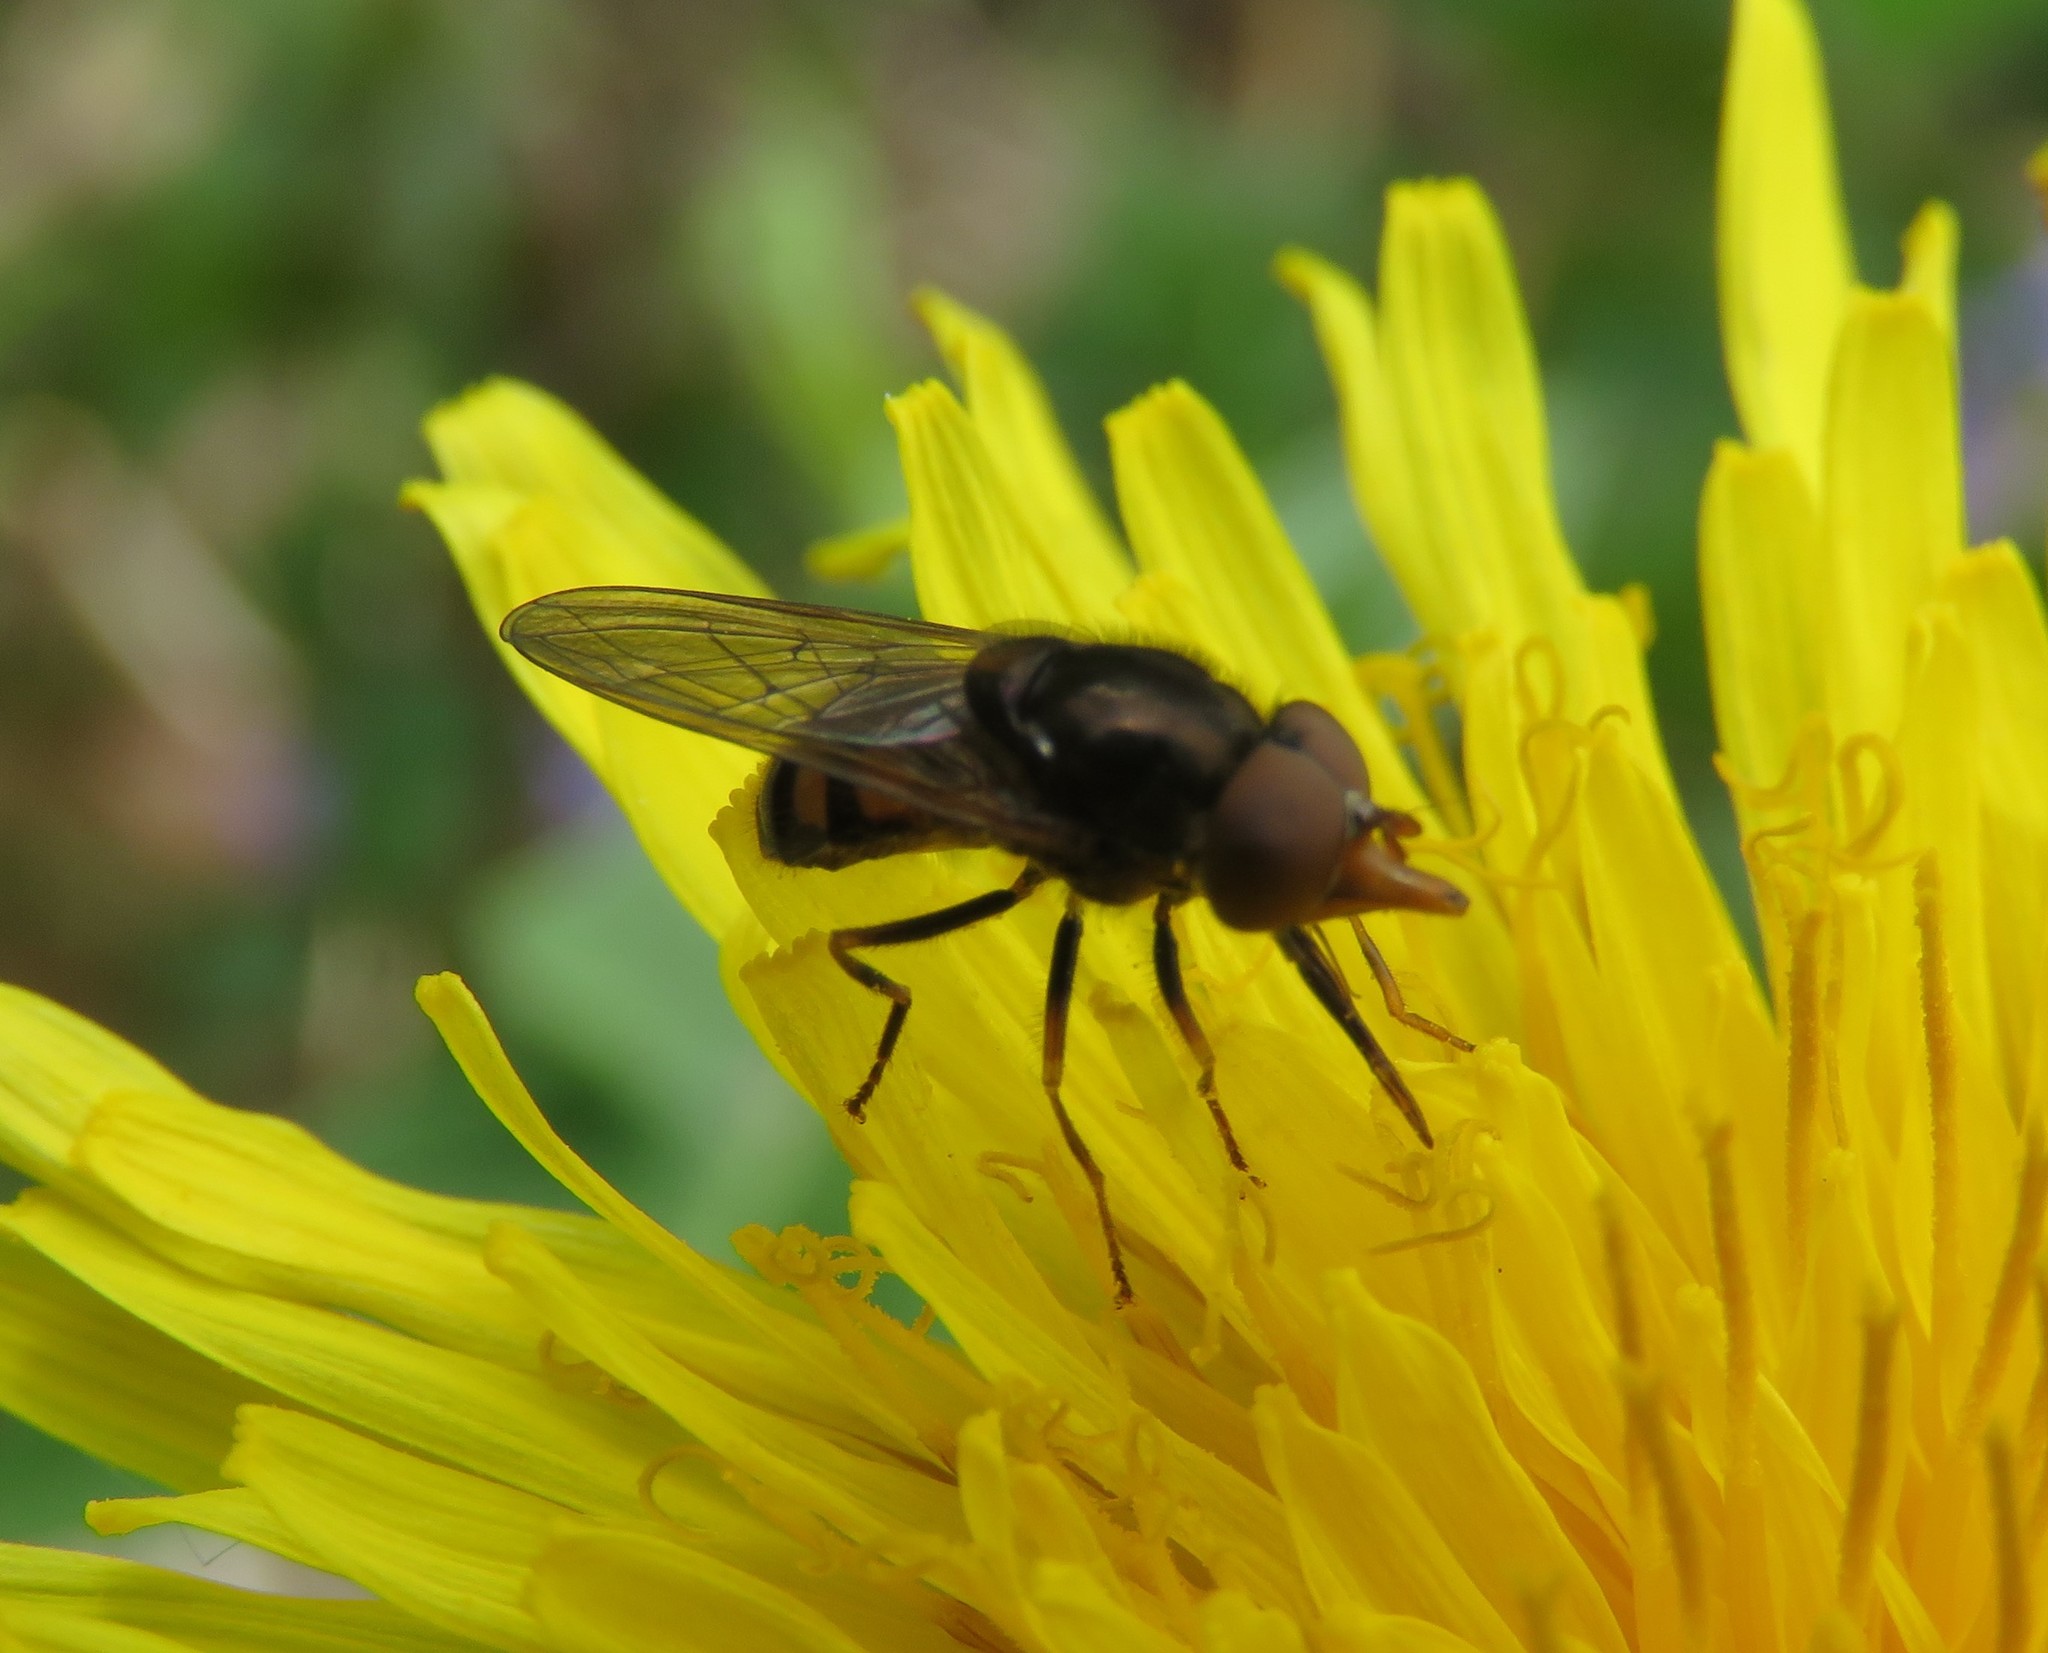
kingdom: Animalia
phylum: Arthropoda
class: Insecta
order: Diptera
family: Syrphidae
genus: Rhingia
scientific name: Rhingia nasica
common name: American snout fly
